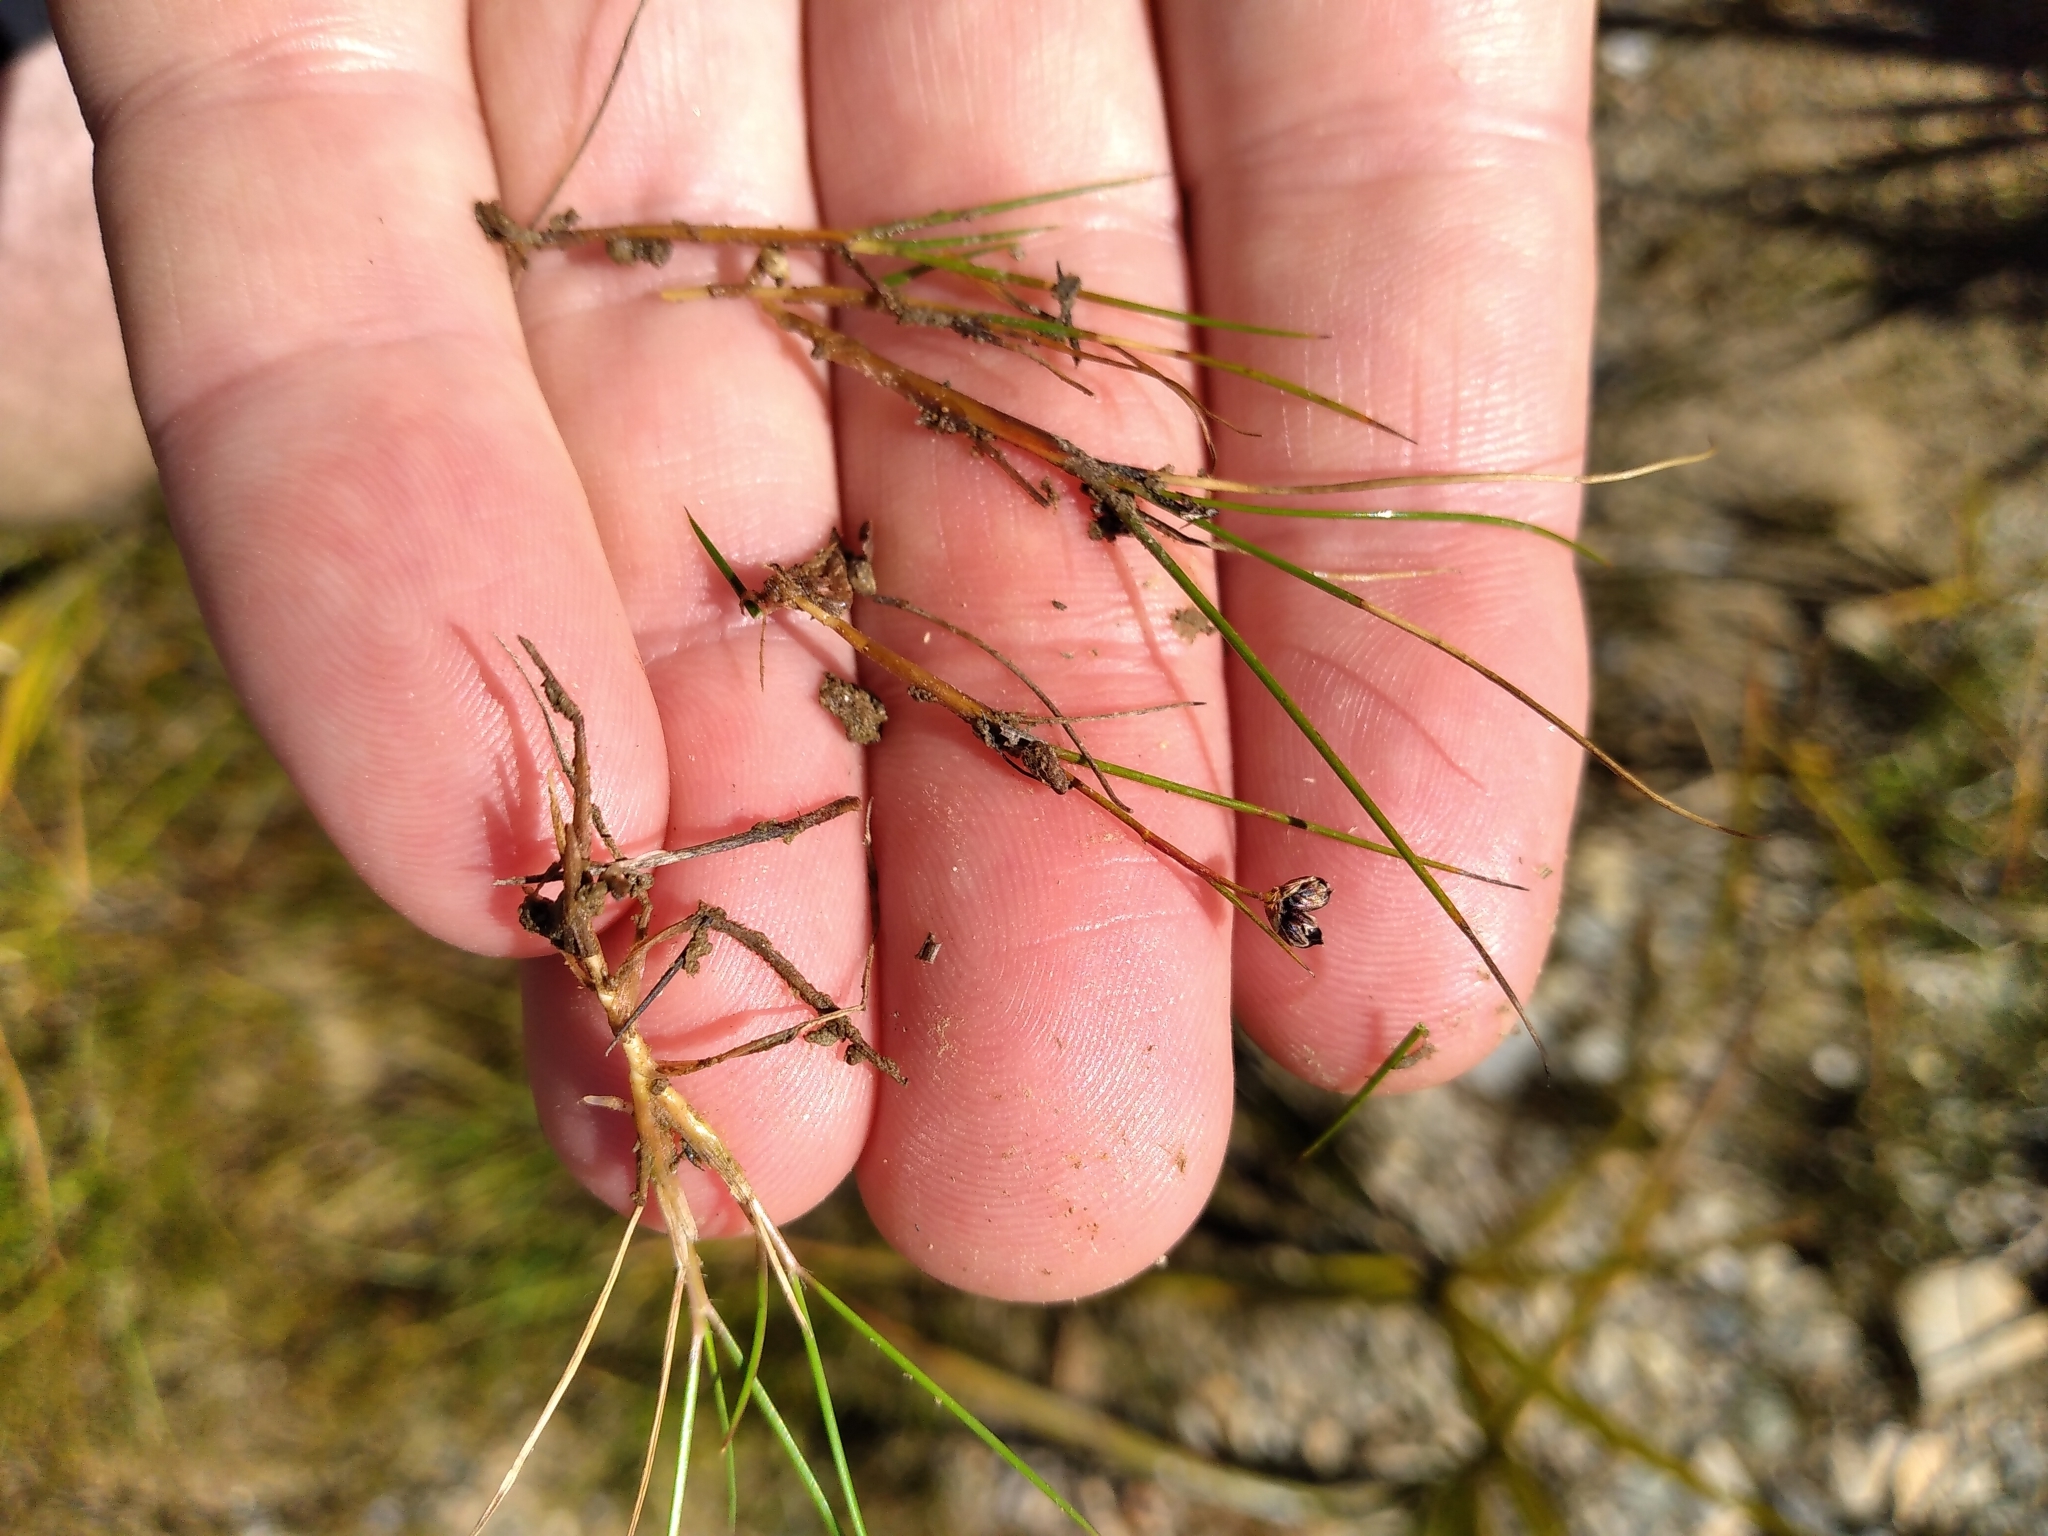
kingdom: Plantae
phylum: Tracheophyta
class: Liliopsida
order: Poales
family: Juncaceae
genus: Juncus
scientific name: Juncus novae-zelandiae
